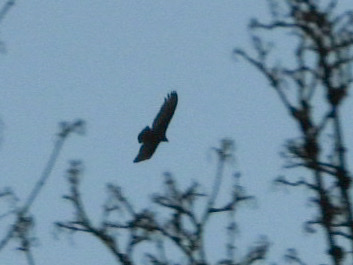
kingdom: Animalia
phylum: Chordata
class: Aves
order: Accipitriformes
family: Cathartidae
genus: Cathartes
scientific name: Cathartes aura
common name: Turkey vulture
